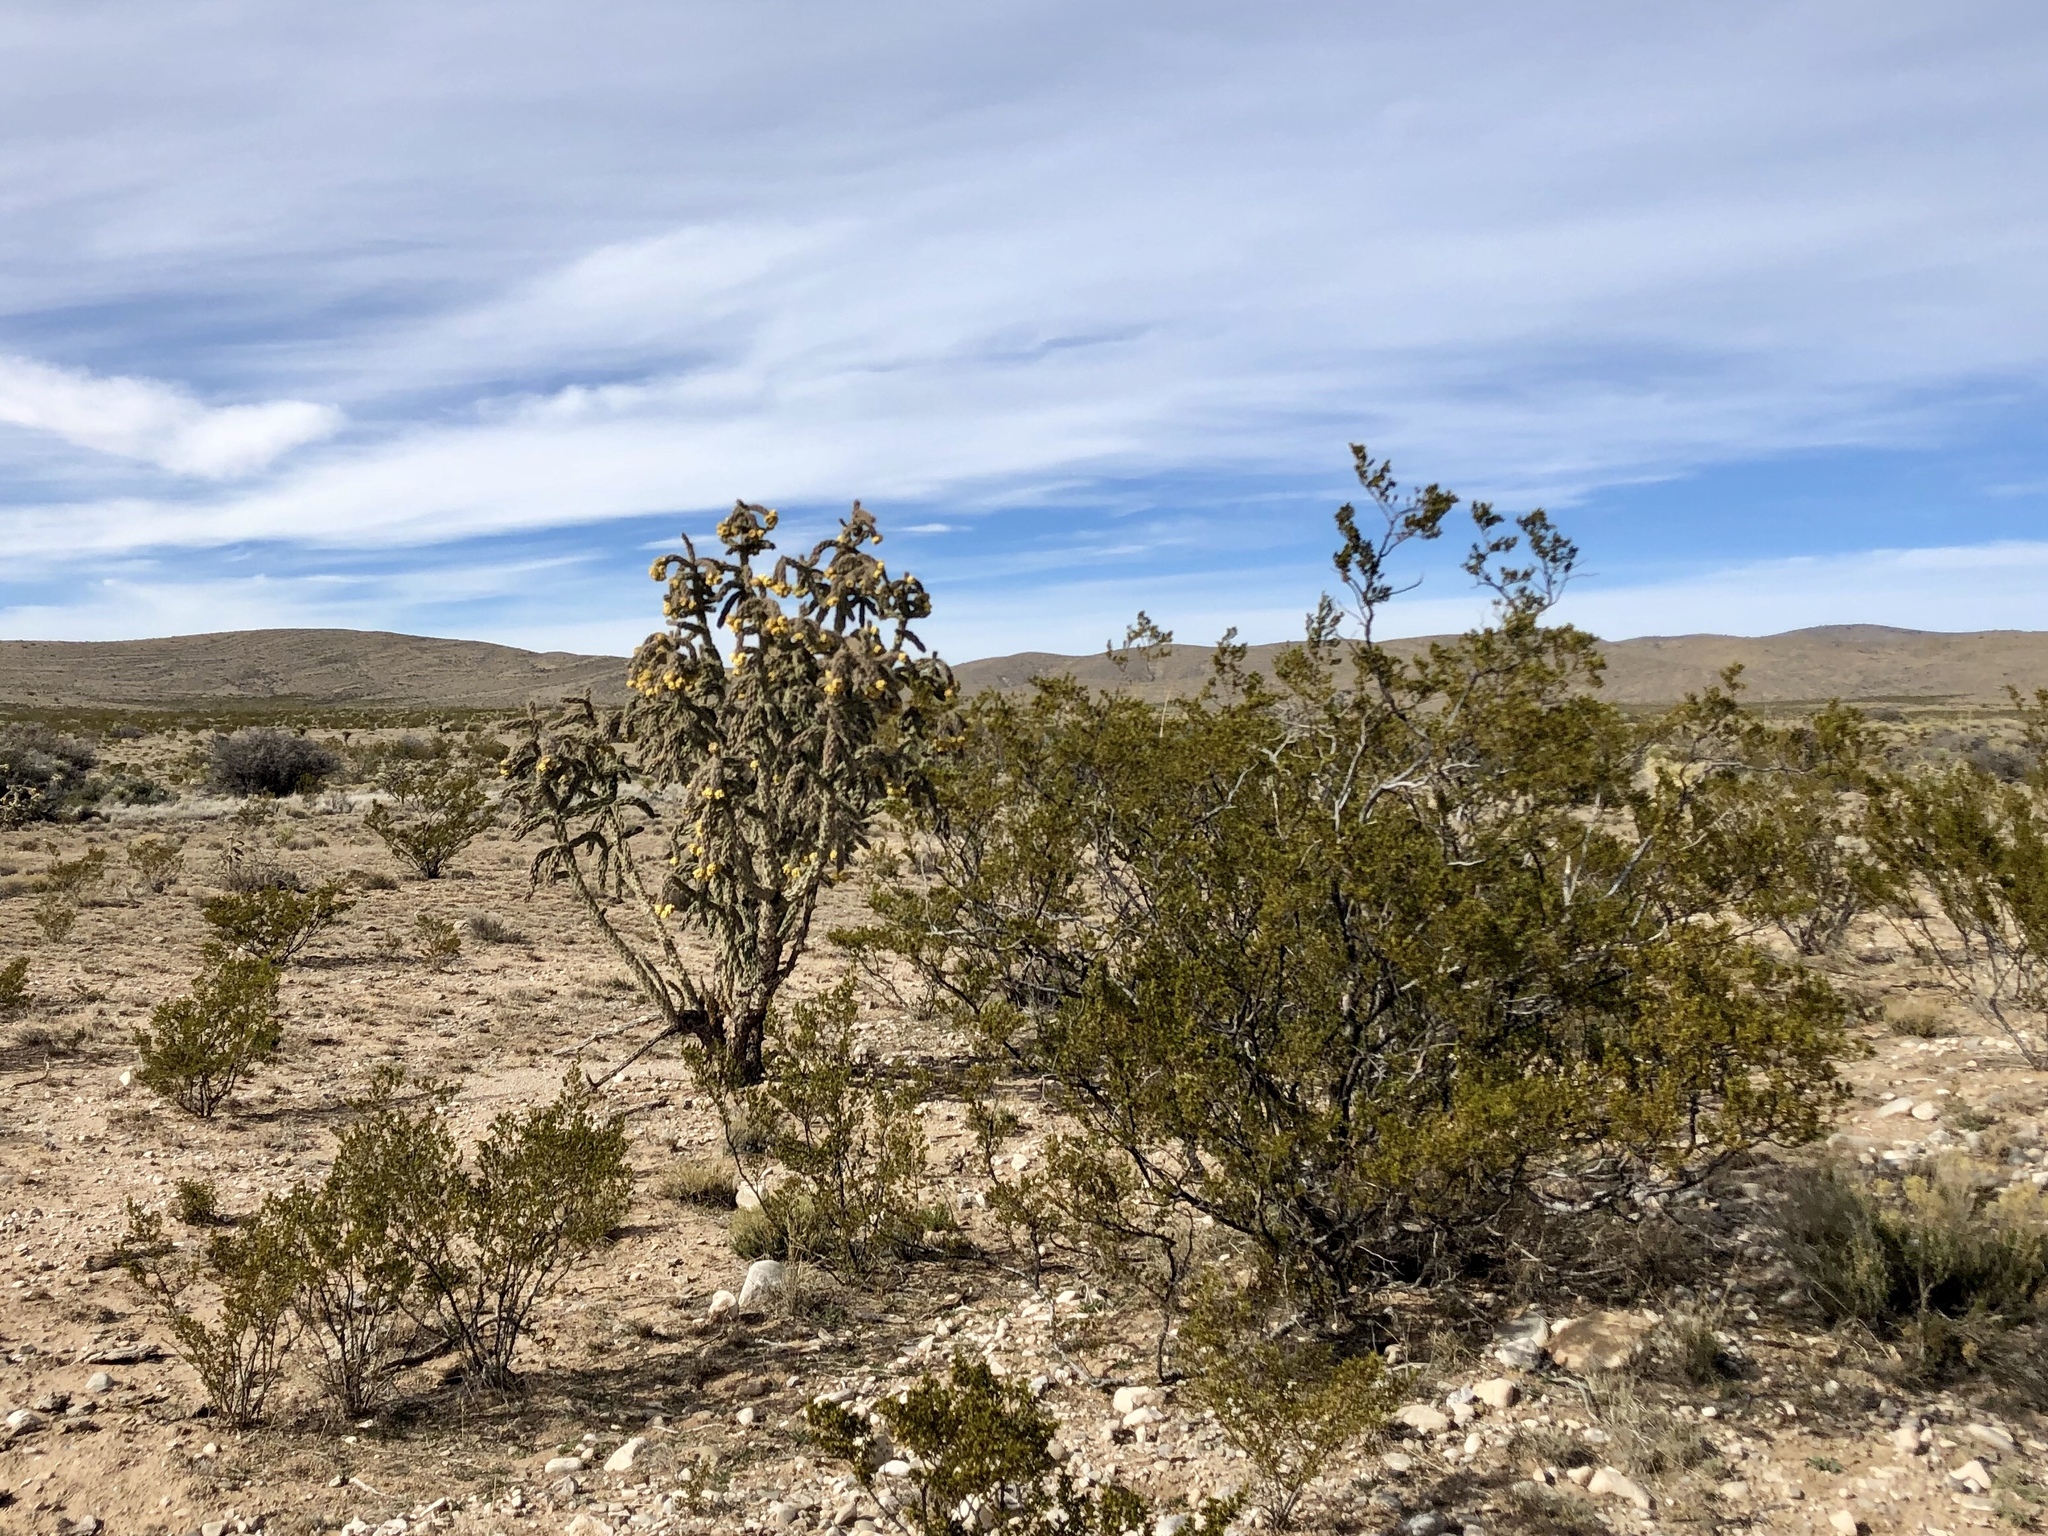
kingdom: Plantae
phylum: Tracheophyta
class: Magnoliopsida
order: Zygophyllales
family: Zygophyllaceae
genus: Larrea
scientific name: Larrea tridentata
